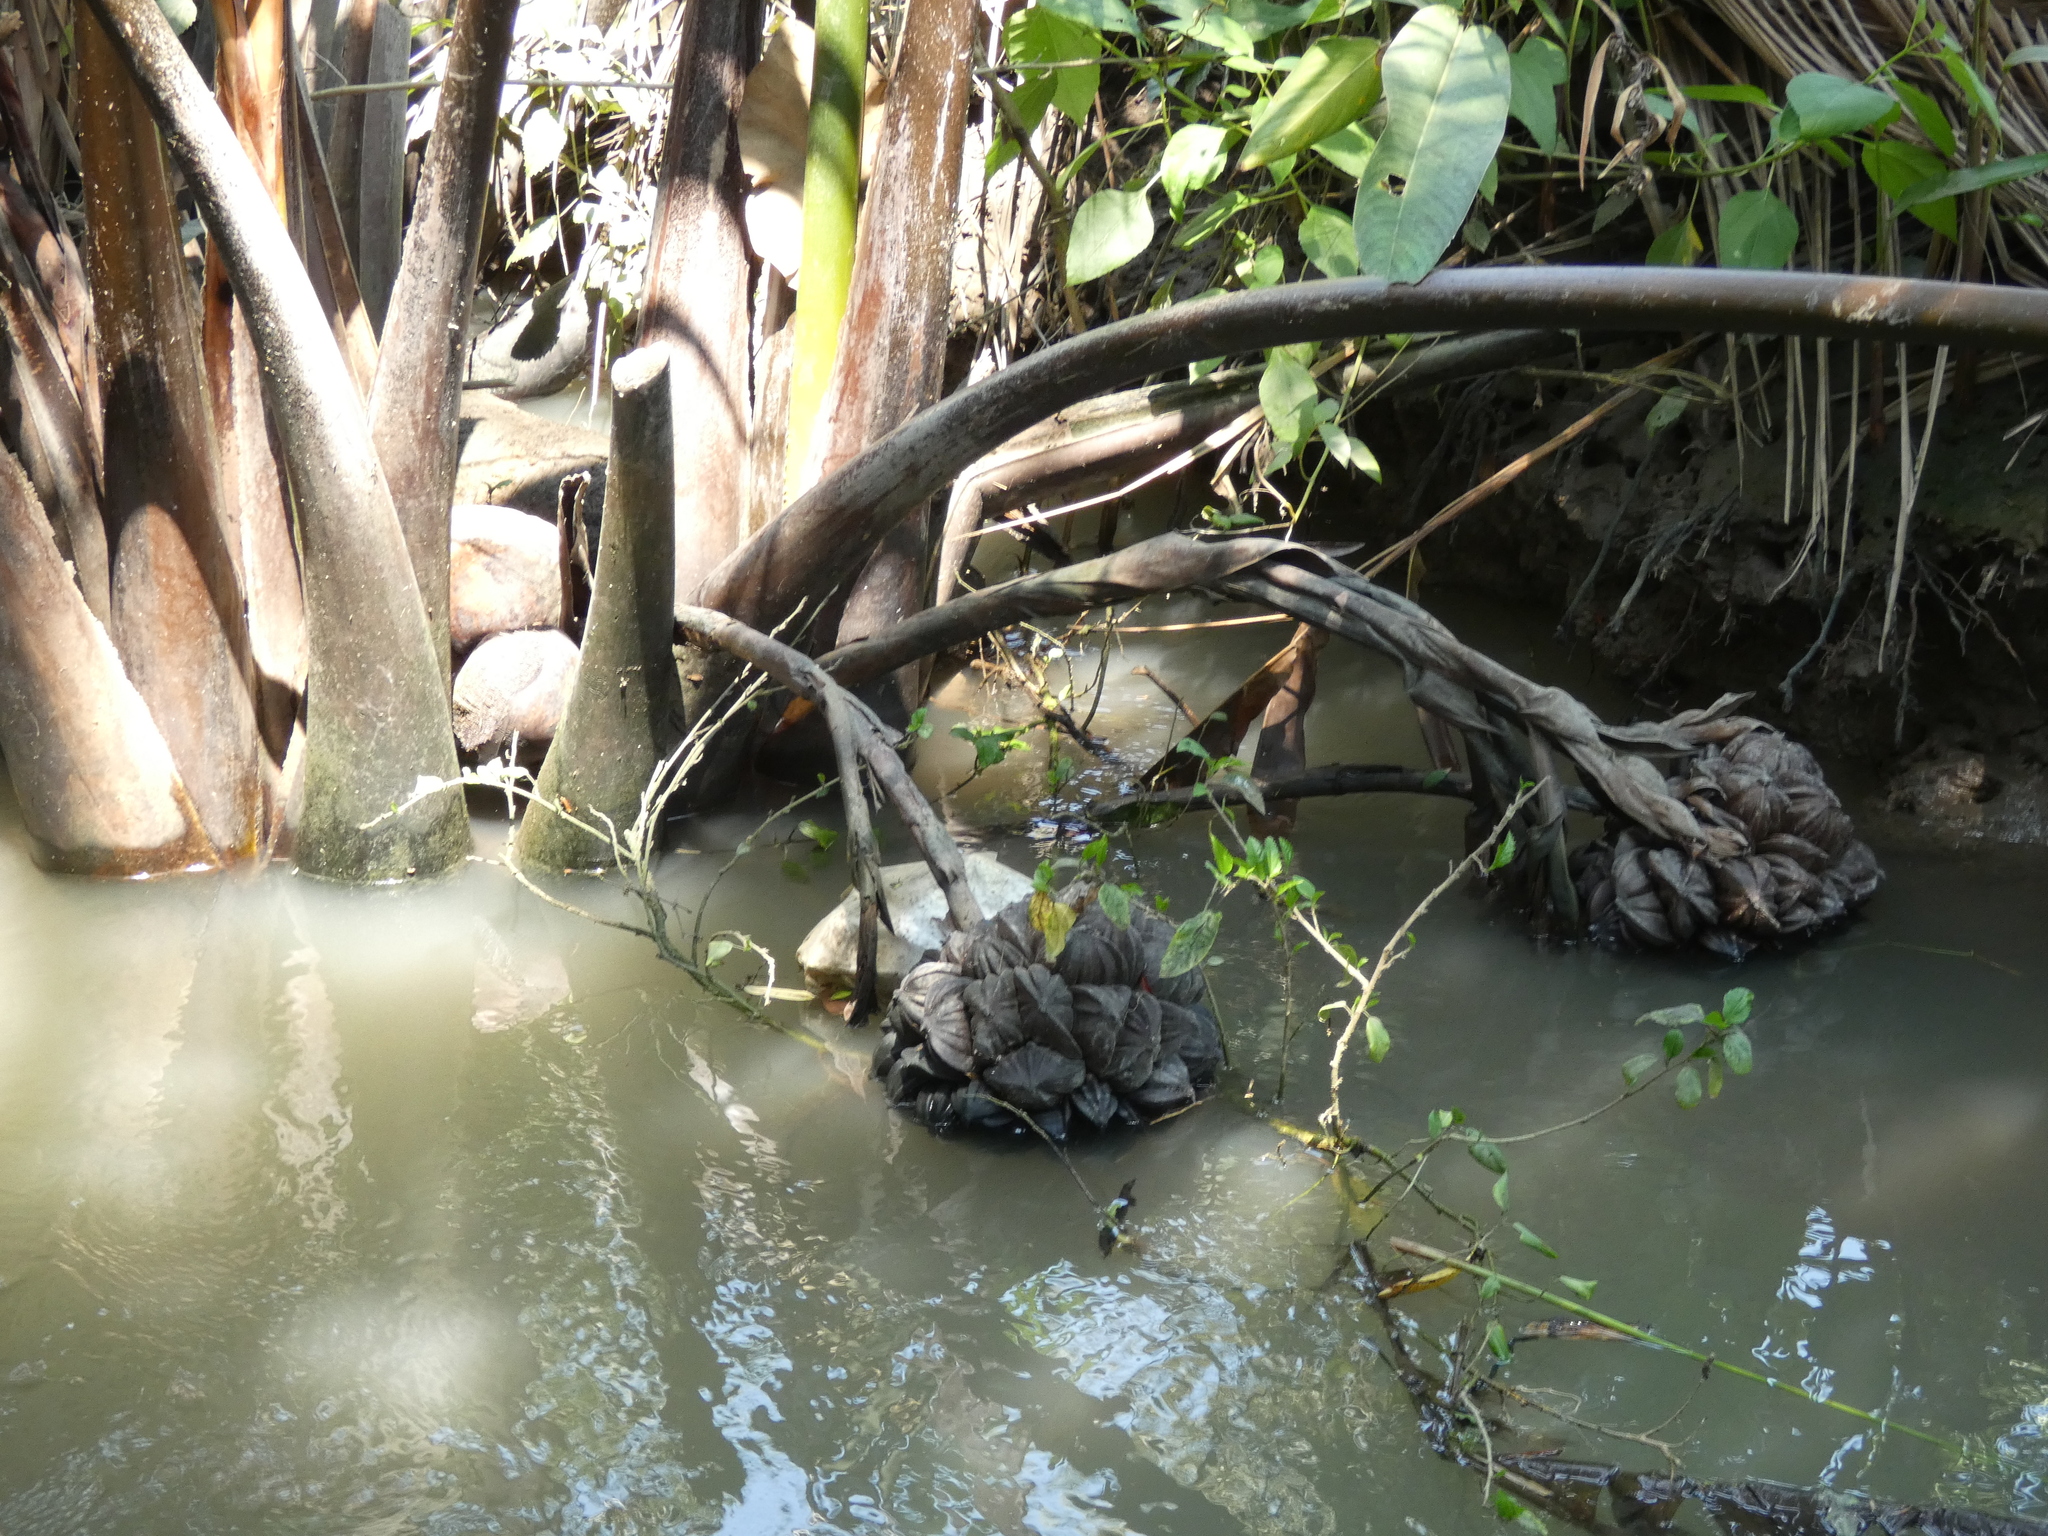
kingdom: Plantae
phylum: Tracheophyta
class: Liliopsida
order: Arecales
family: Arecaceae
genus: Nypa
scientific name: Nypa fruticans
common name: Mangrove palm
